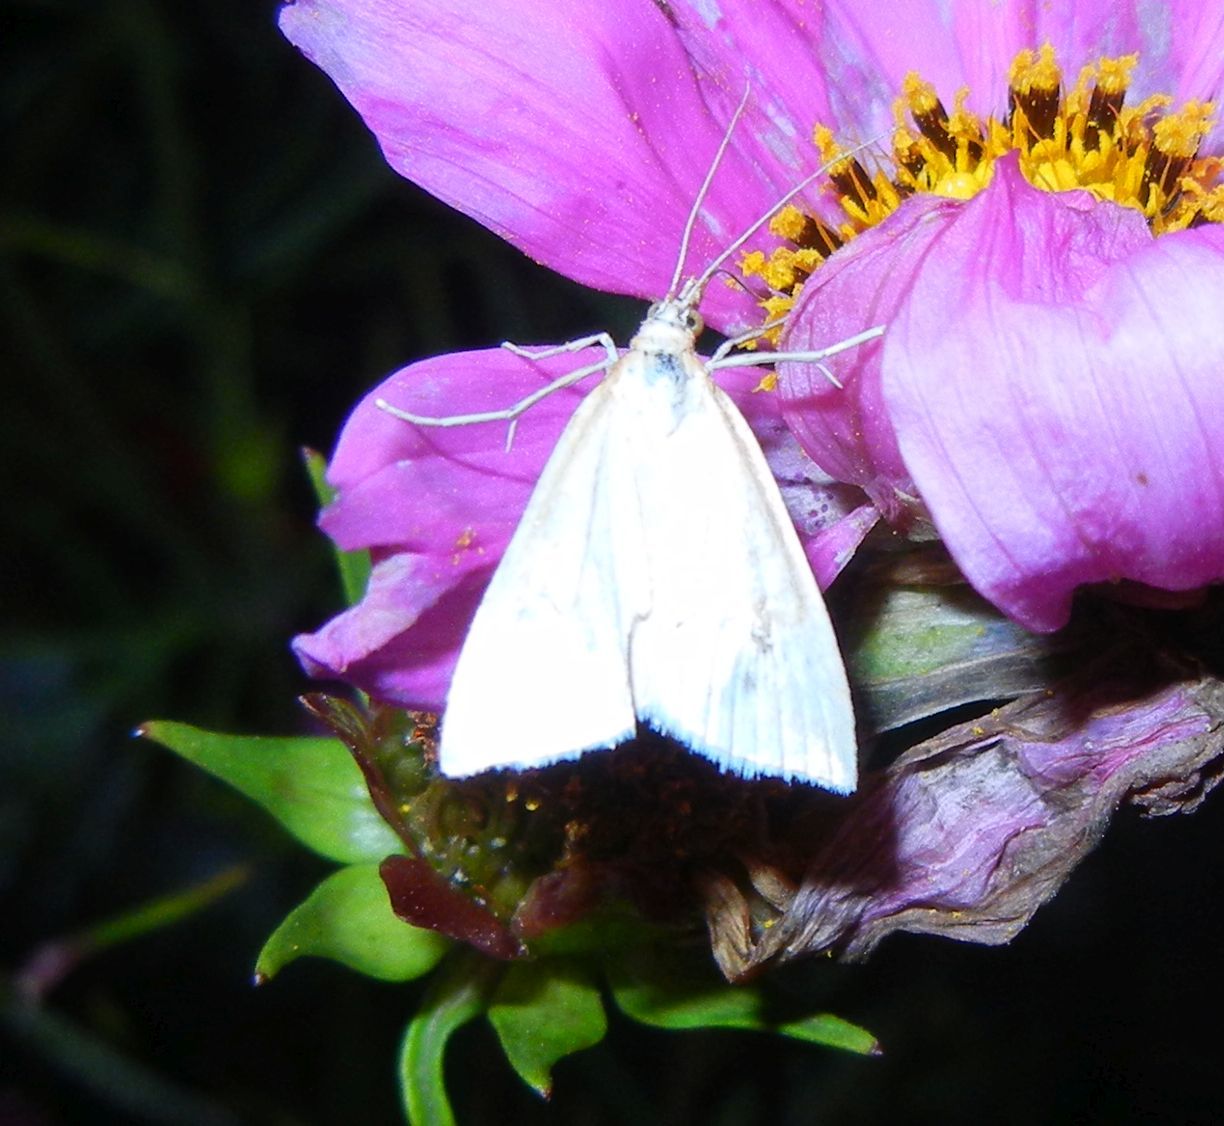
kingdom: Animalia
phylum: Arthropoda
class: Insecta
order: Lepidoptera
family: Crambidae
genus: Udea
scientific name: Udea lutealis
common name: Pale straw pearl
